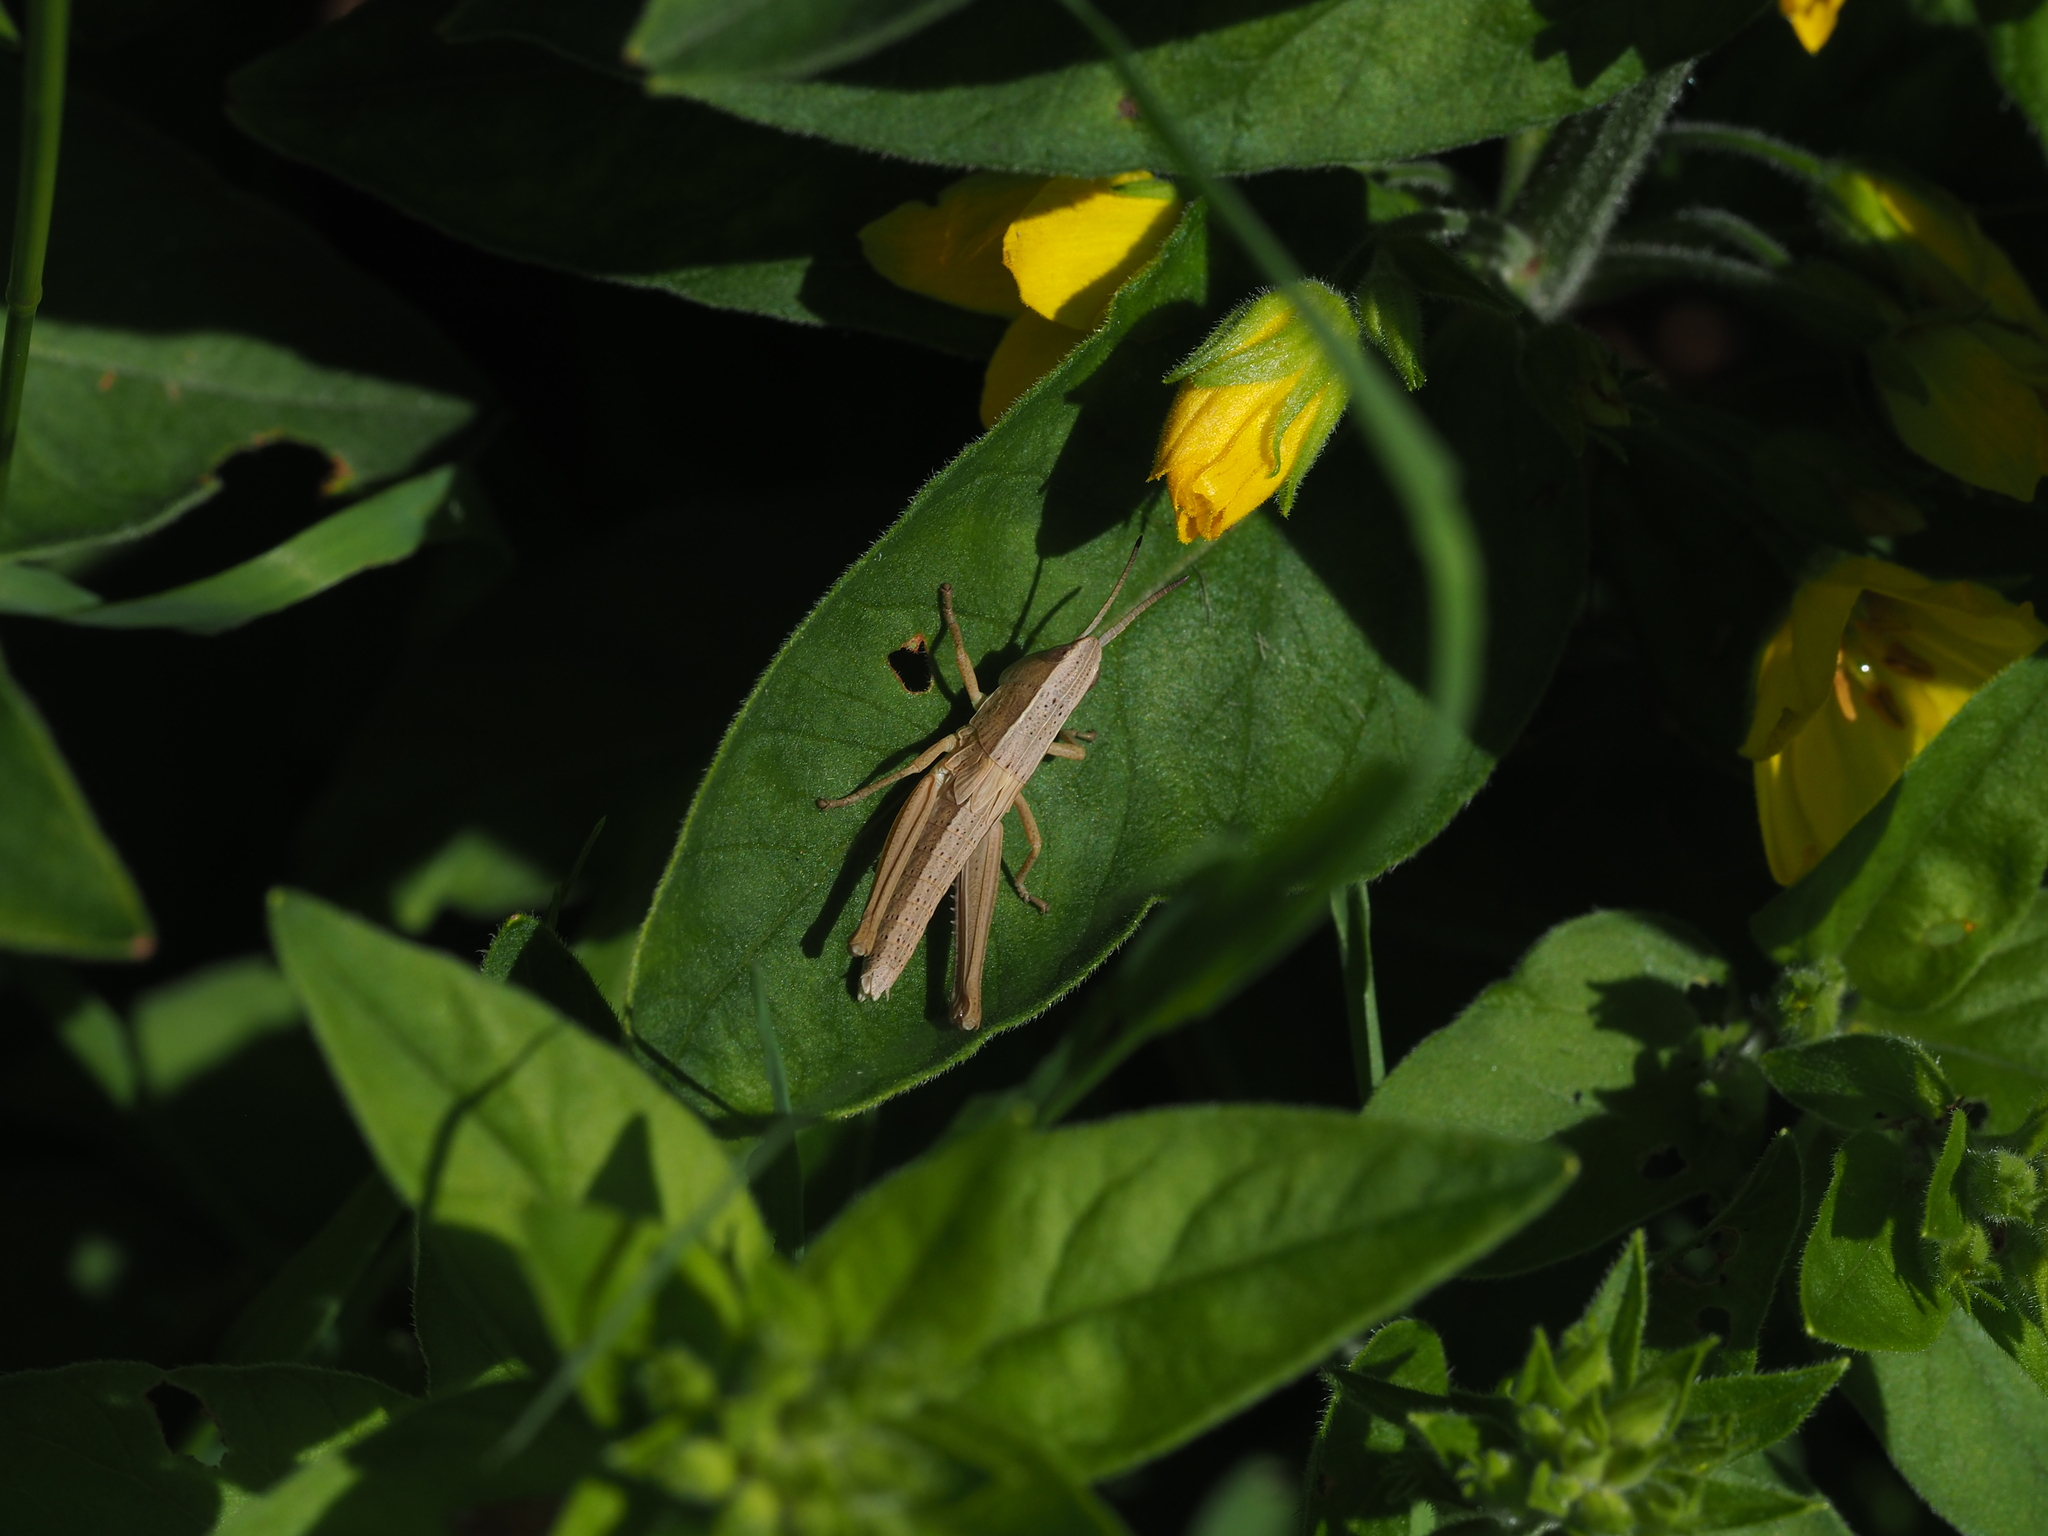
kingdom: Animalia
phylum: Arthropoda
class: Insecta
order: Orthoptera
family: Acrididae
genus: Chrysochraon
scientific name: Chrysochraon dispar
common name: Large gold grasshopper
